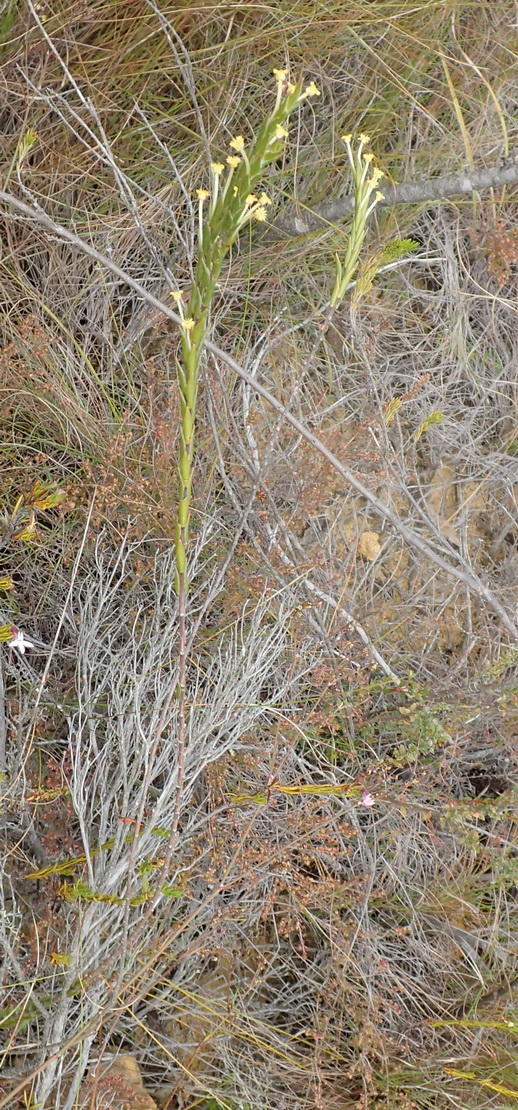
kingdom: Plantae
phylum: Tracheophyta
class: Magnoliopsida
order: Malvales
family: Thymelaeaceae
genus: Struthiola
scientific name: Struthiola garciana
